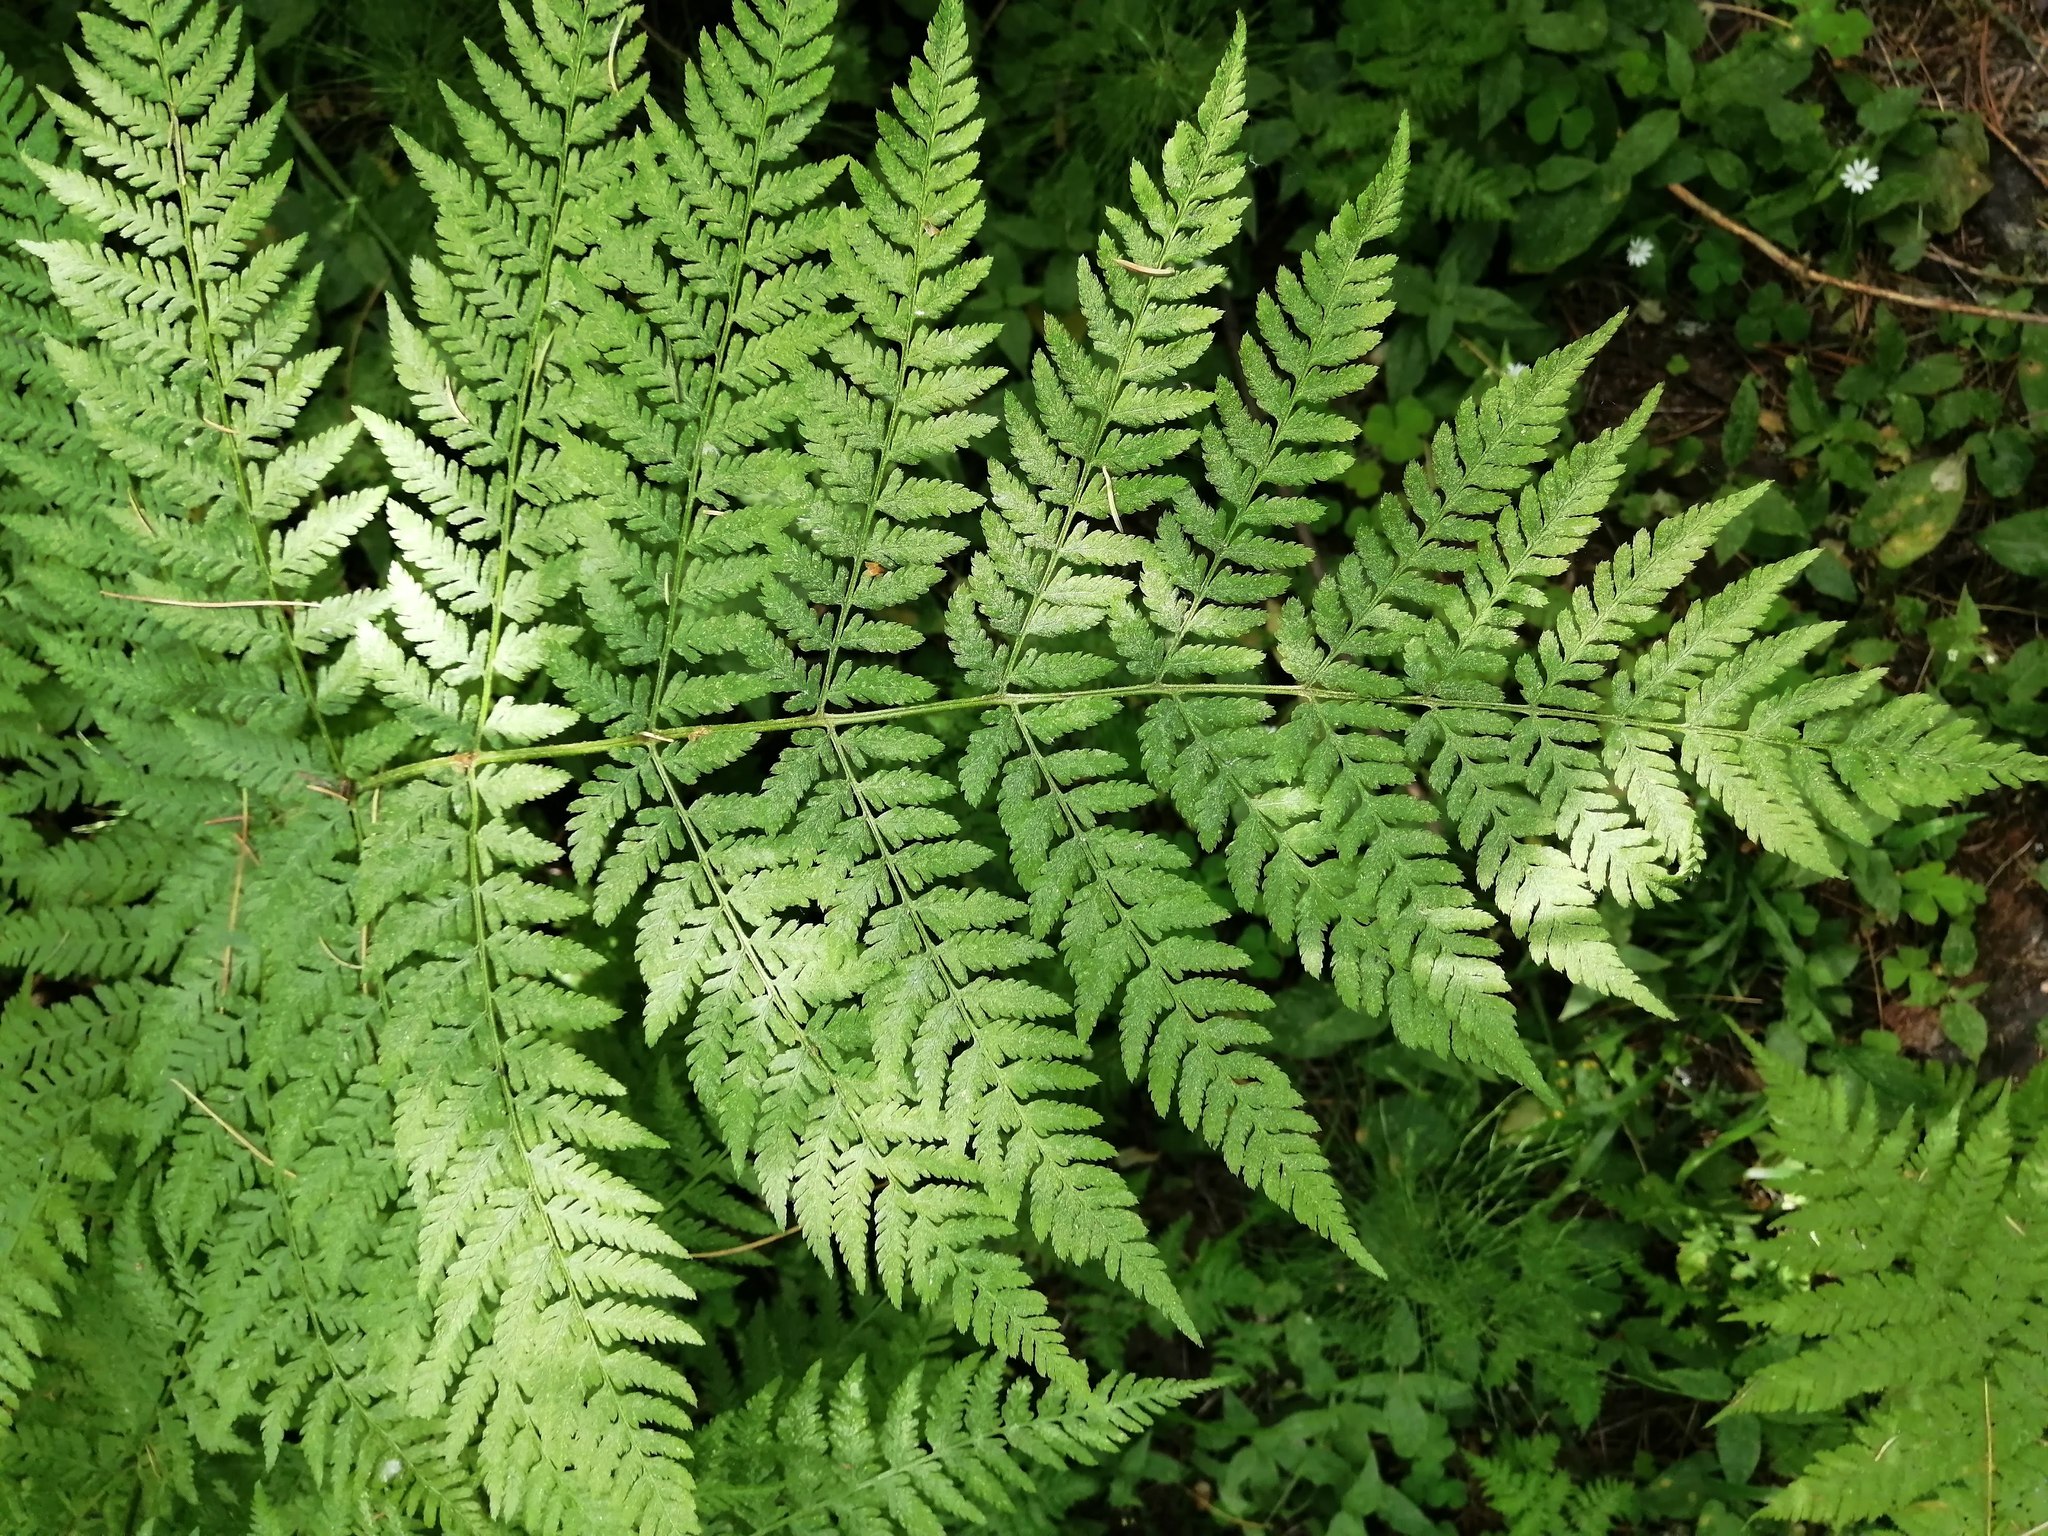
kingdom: Plantae
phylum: Tracheophyta
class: Polypodiopsida
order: Polypodiales
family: Dryopteridaceae
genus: Dryopteris
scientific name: Dryopteris expansa
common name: Northern buckler fern
